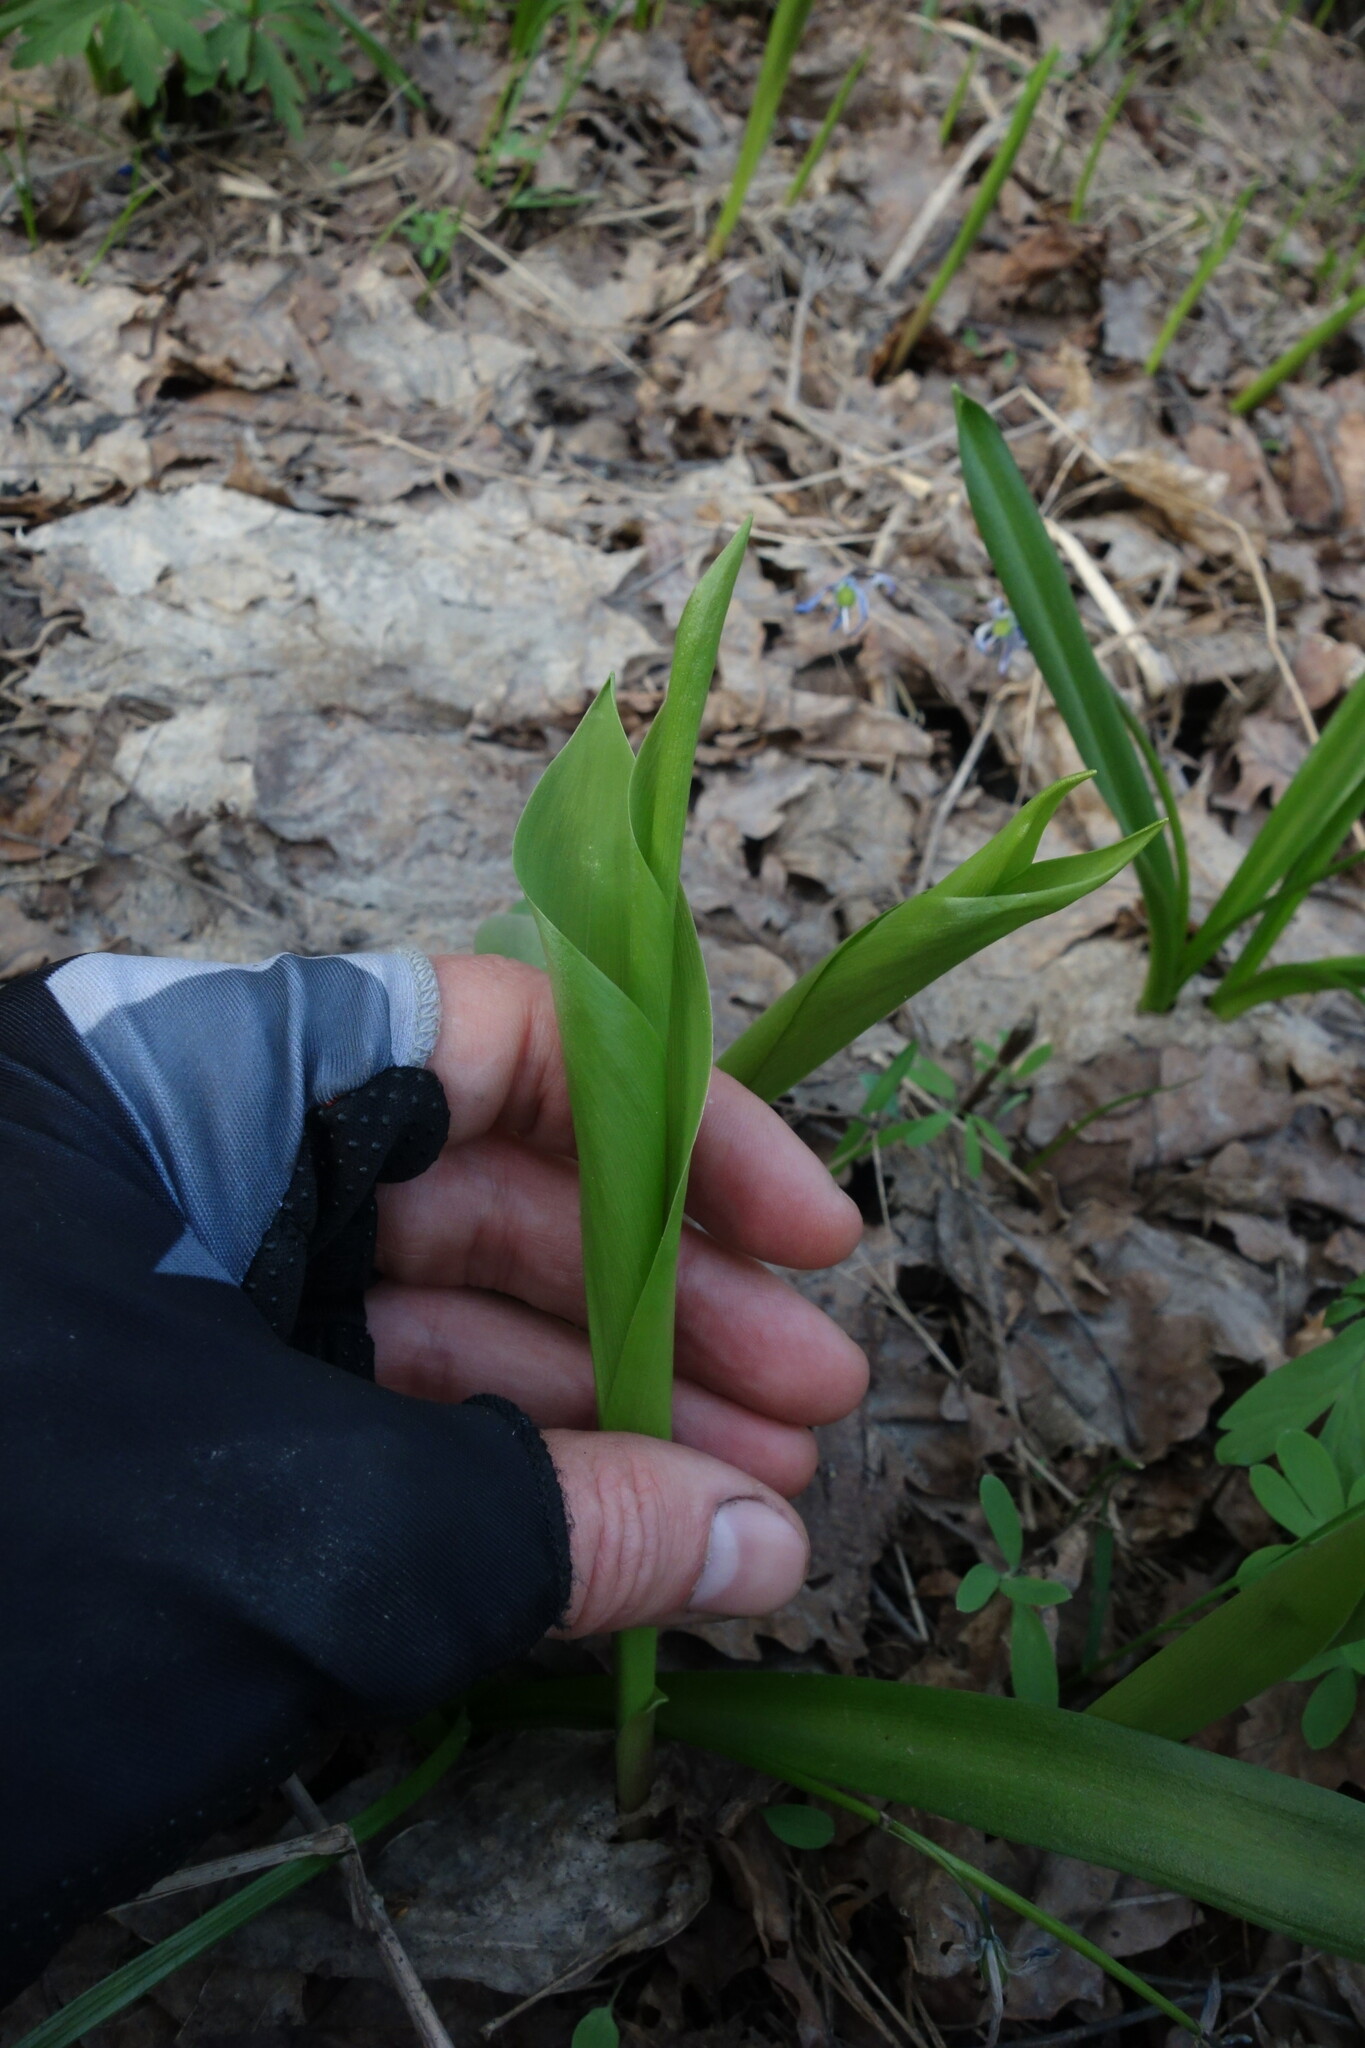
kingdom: Plantae
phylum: Tracheophyta
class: Liliopsida
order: Asparagales
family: Asparagaceae
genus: Convallaria
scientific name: Convallaria majalis
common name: Lily-of-the-valley
